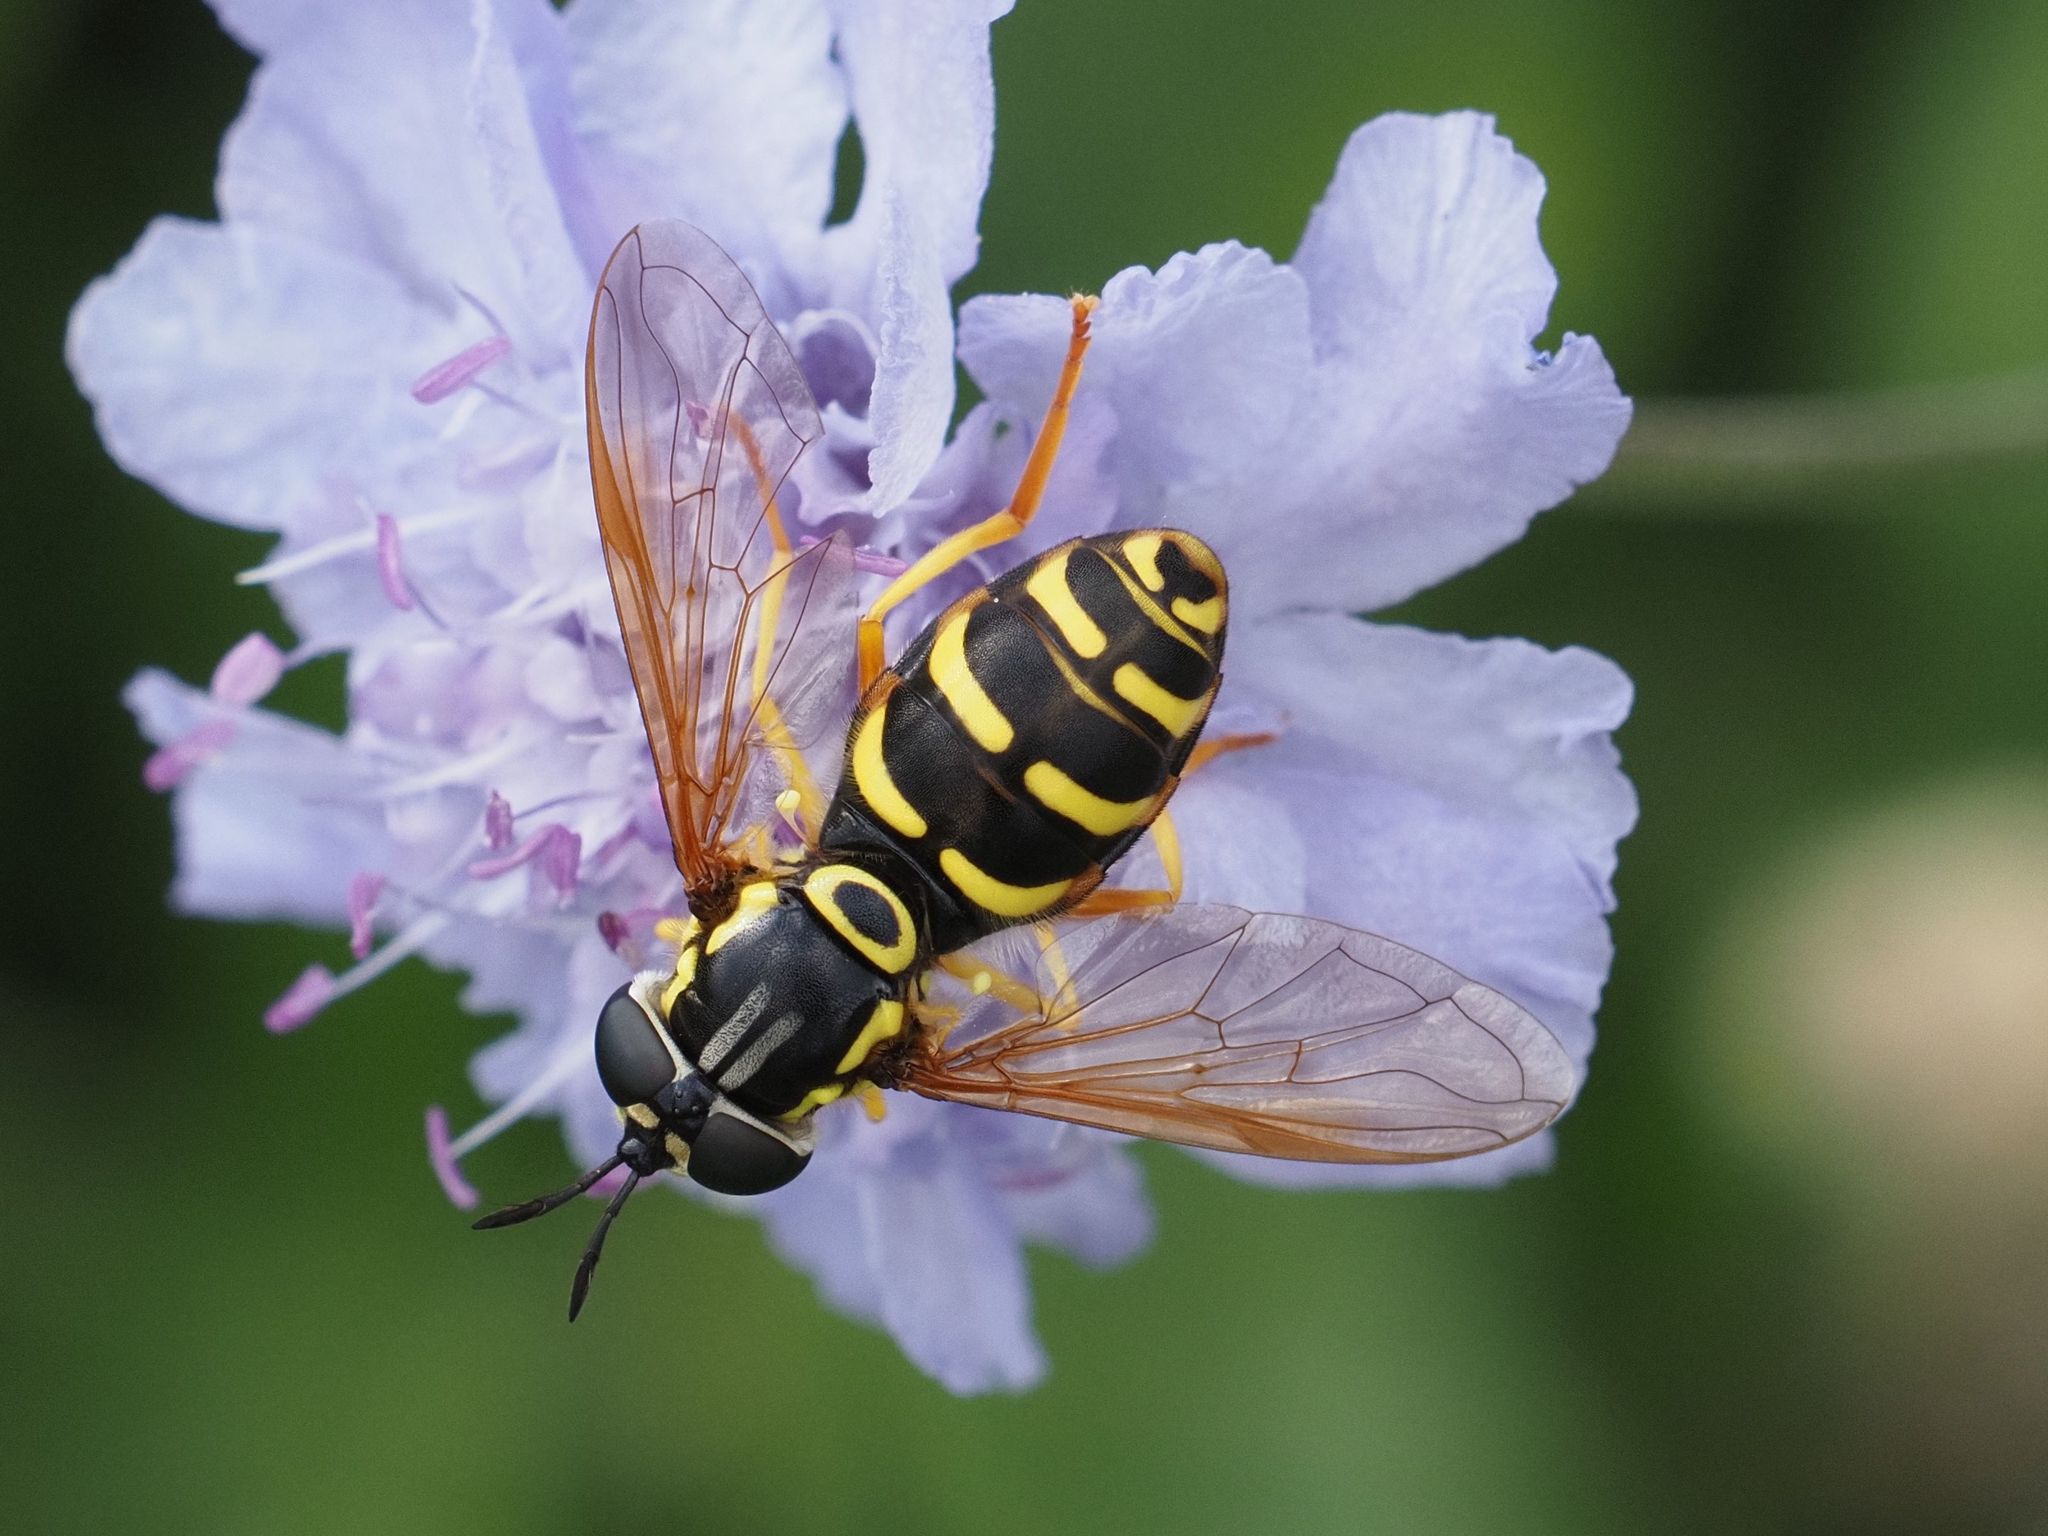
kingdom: Animalia
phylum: Arthropoda
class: Insecta
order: Diptera
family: Syrphidae
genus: Chrysotoxum
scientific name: Chrysotoxum elegans
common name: Zipperback
